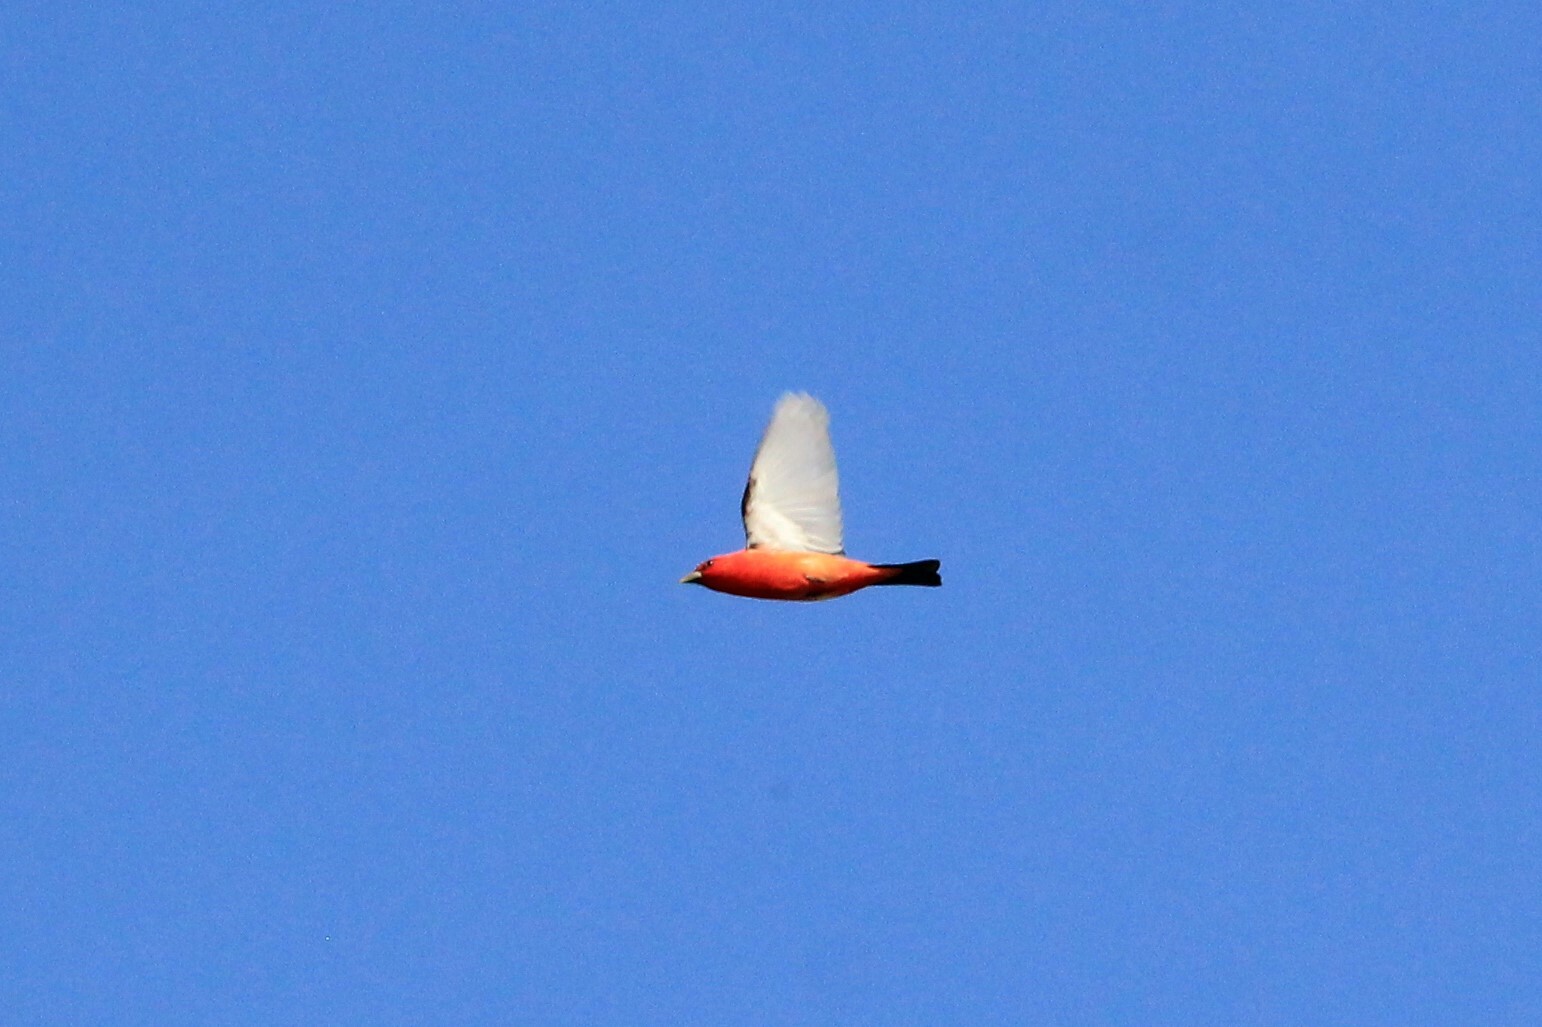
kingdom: Animalia
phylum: Chordata
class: Aves
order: Passeriformes
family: Cardinalidae
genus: Piranga
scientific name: Piranga olivacea
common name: Scarlet tanager
